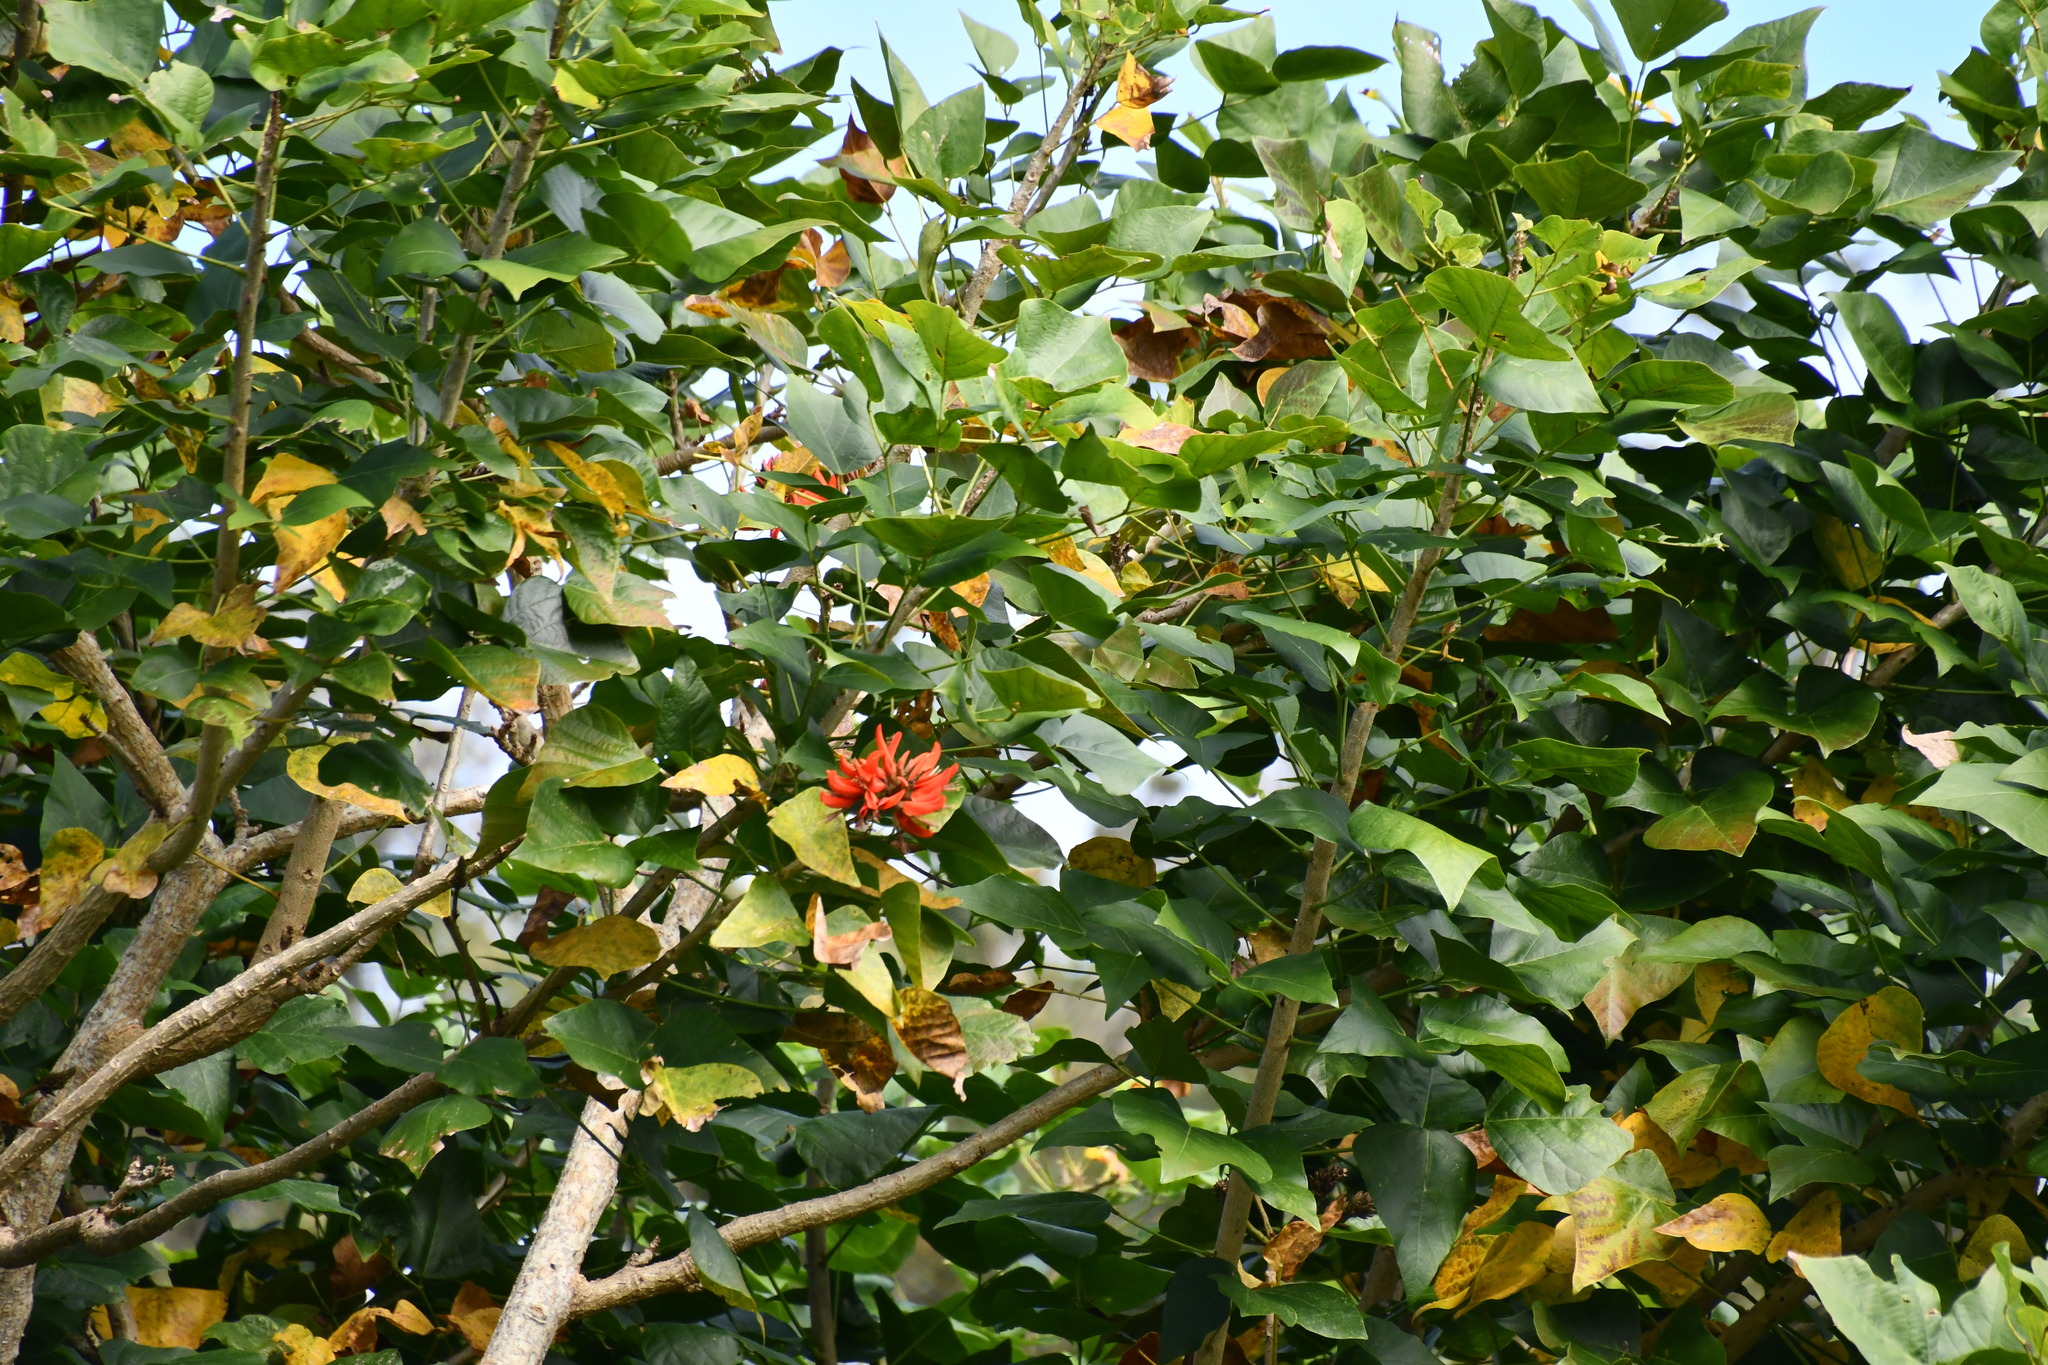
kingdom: Plantae
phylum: Tracheophyta
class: Magnoliopsida
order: Fabales
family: Fabaceae
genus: Erythrina
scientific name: Erythrina sykesii
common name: Coraltree
